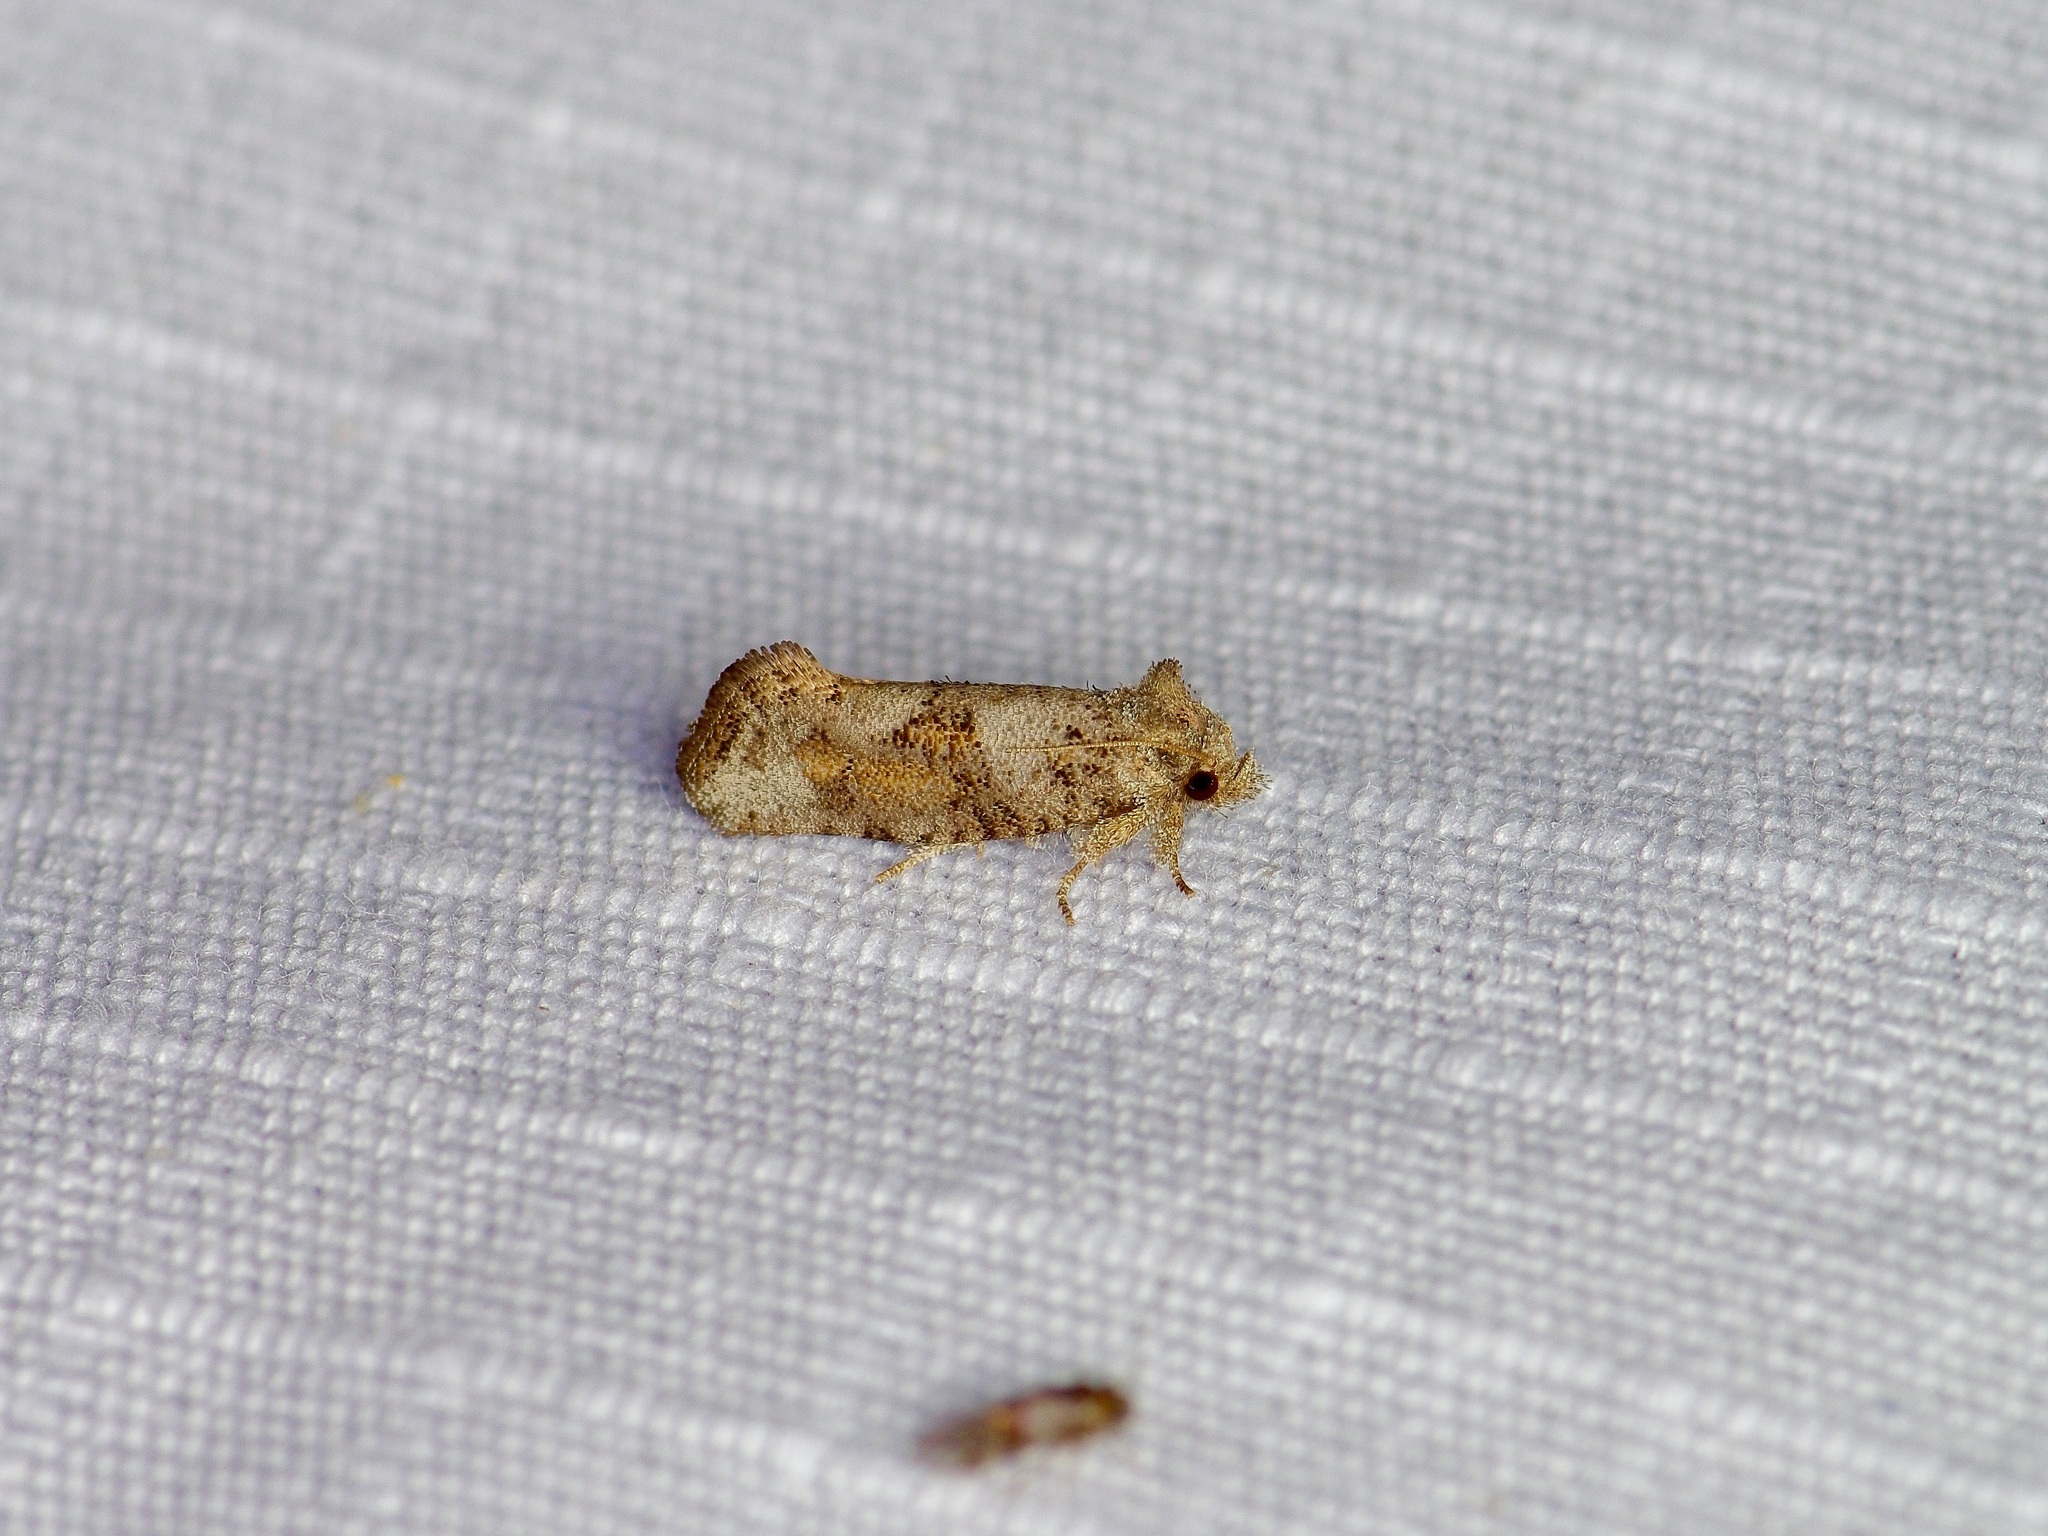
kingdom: Animalia
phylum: Arthropoda
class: Insecta
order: Lepidoptera
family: Tineidae
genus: Acrolophus
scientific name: Acrolophus piger
